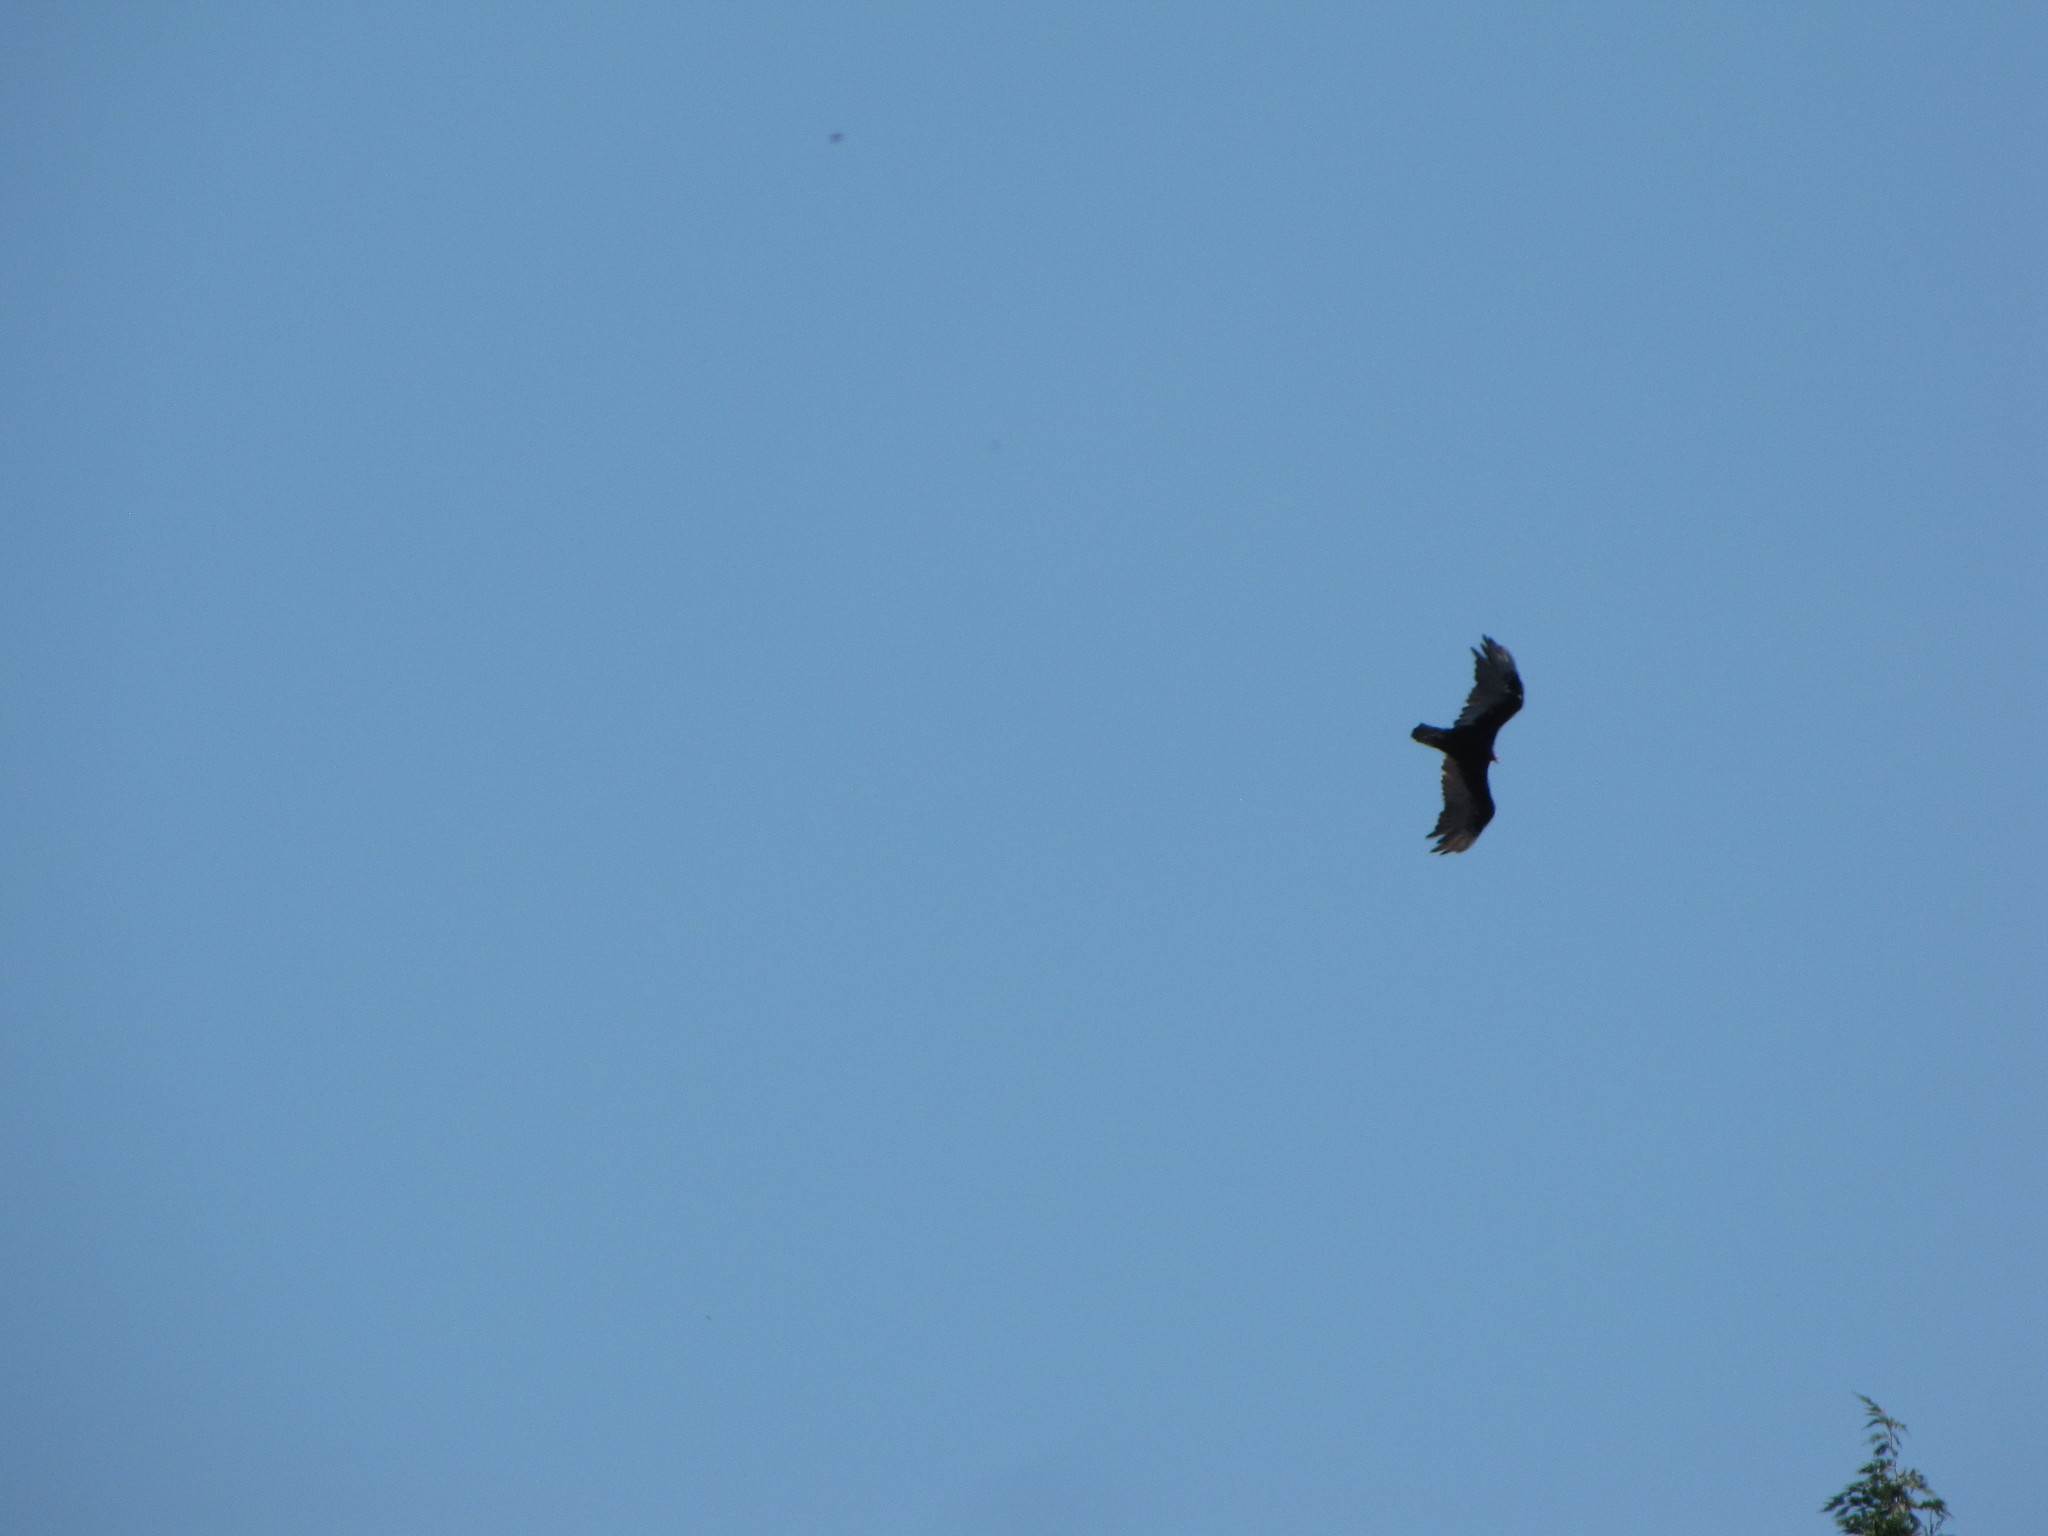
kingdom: Animalia
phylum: Chordata
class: Aves
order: Accipitriformes
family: Cathartidae
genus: Cathartes
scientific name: Cathartes aura
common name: Turkey vulture
